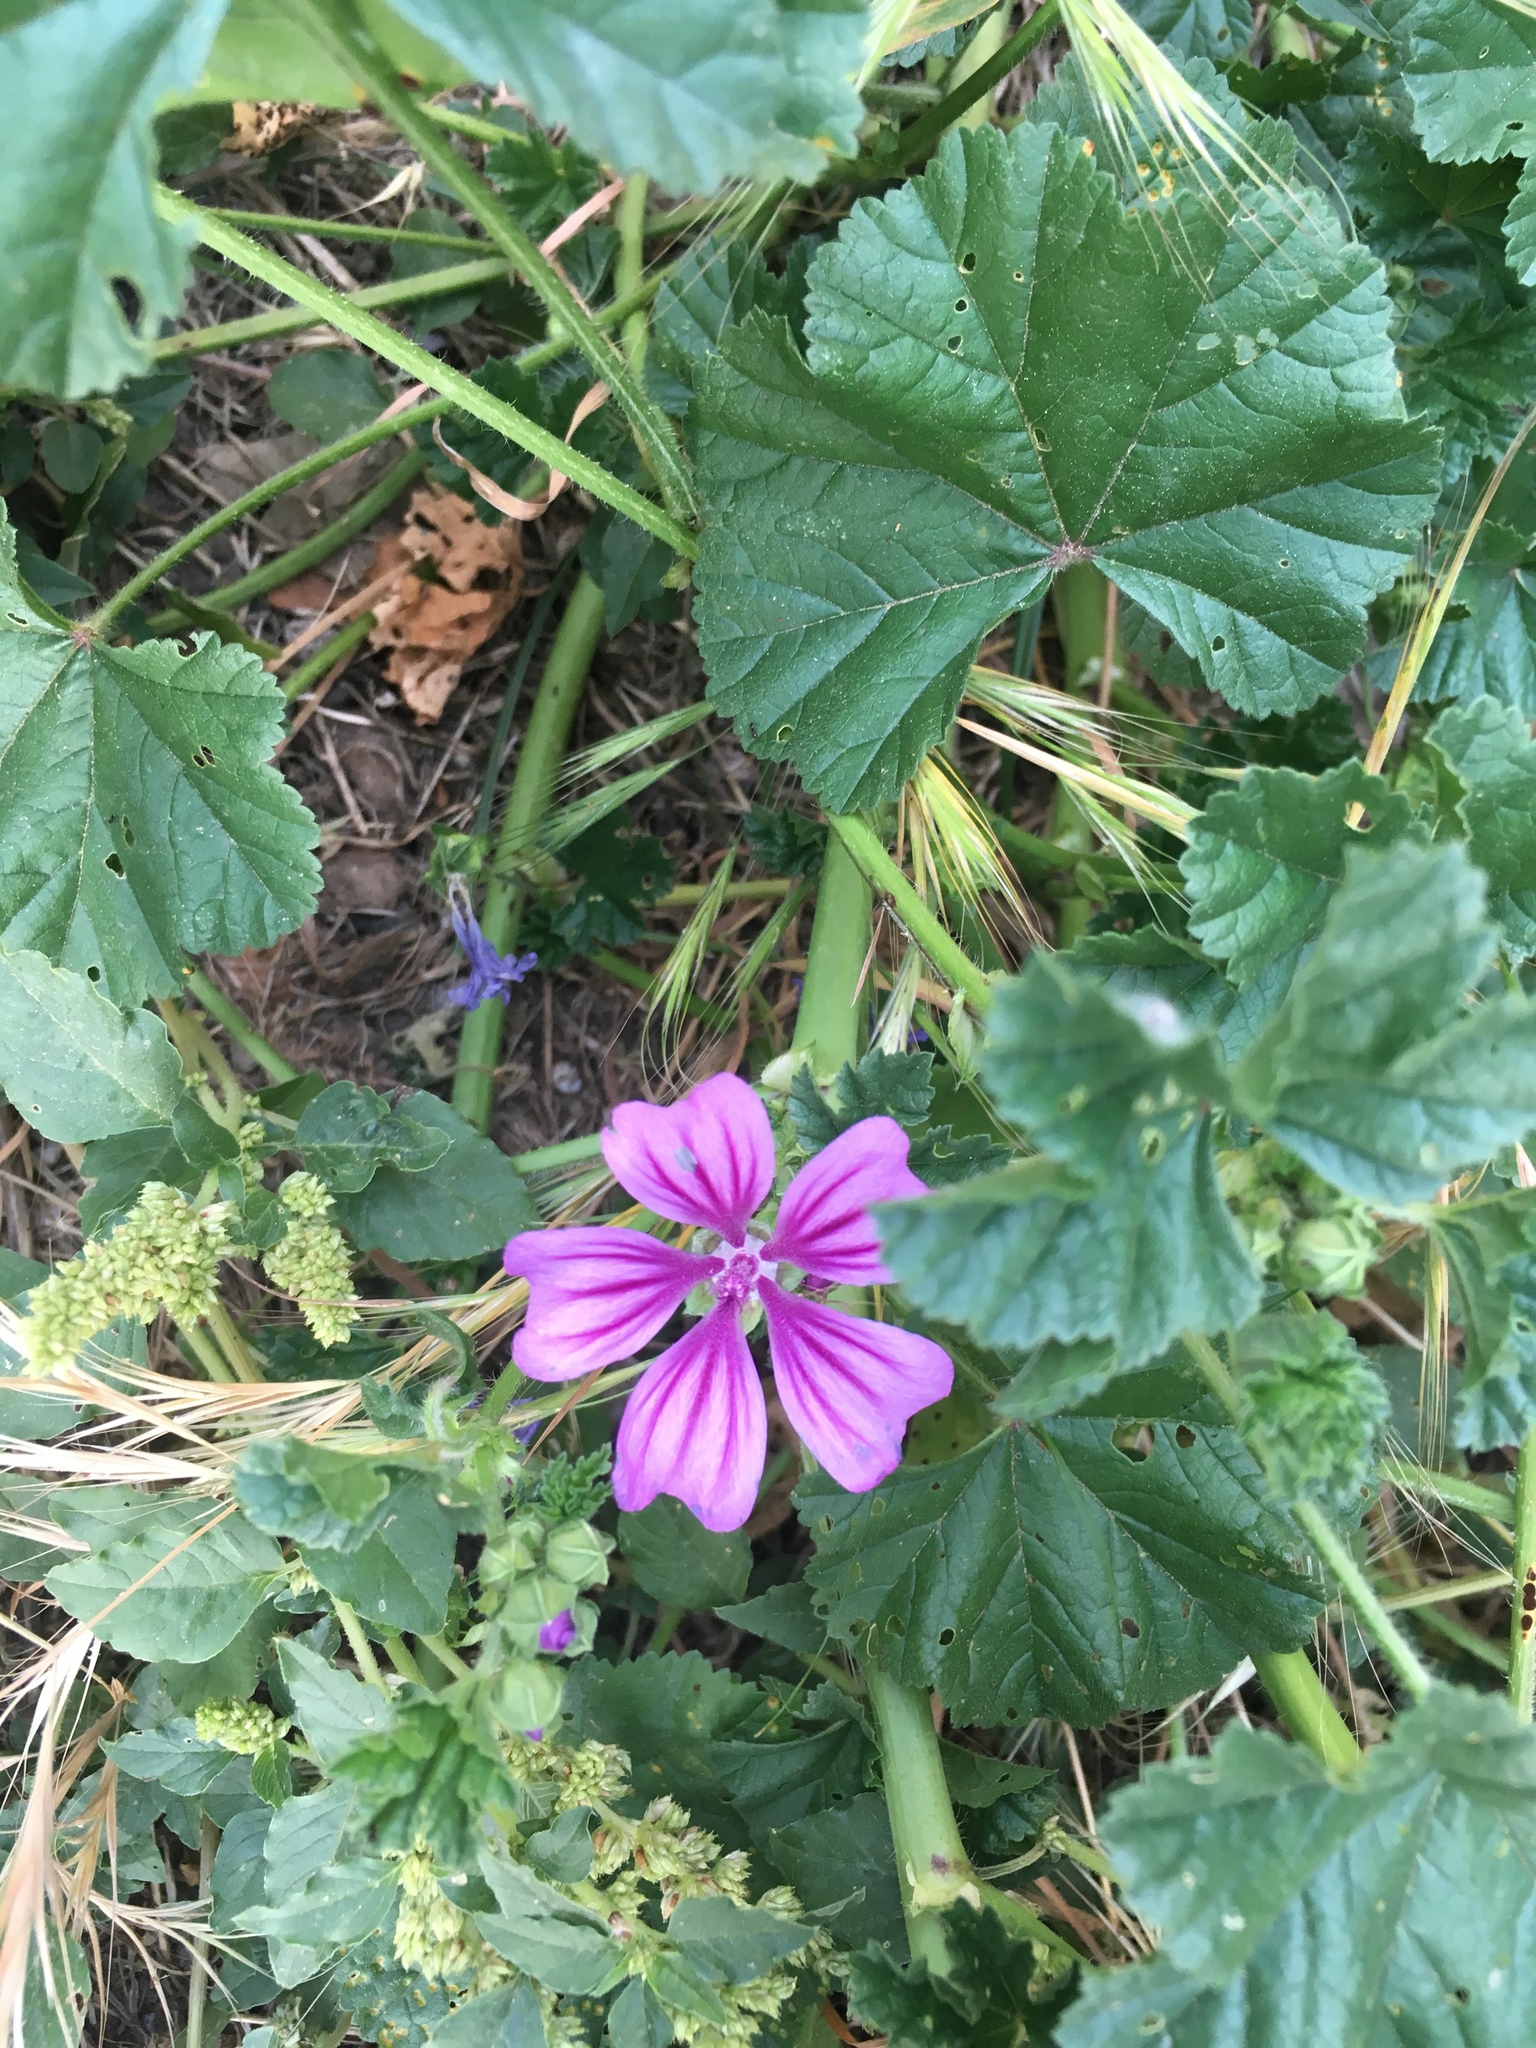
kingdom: Plantae
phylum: Tracheophyta
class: Magnoliopsida
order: Malvales
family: Malvaceae
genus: Malva
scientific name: Malva sylvestris
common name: Common mallow
